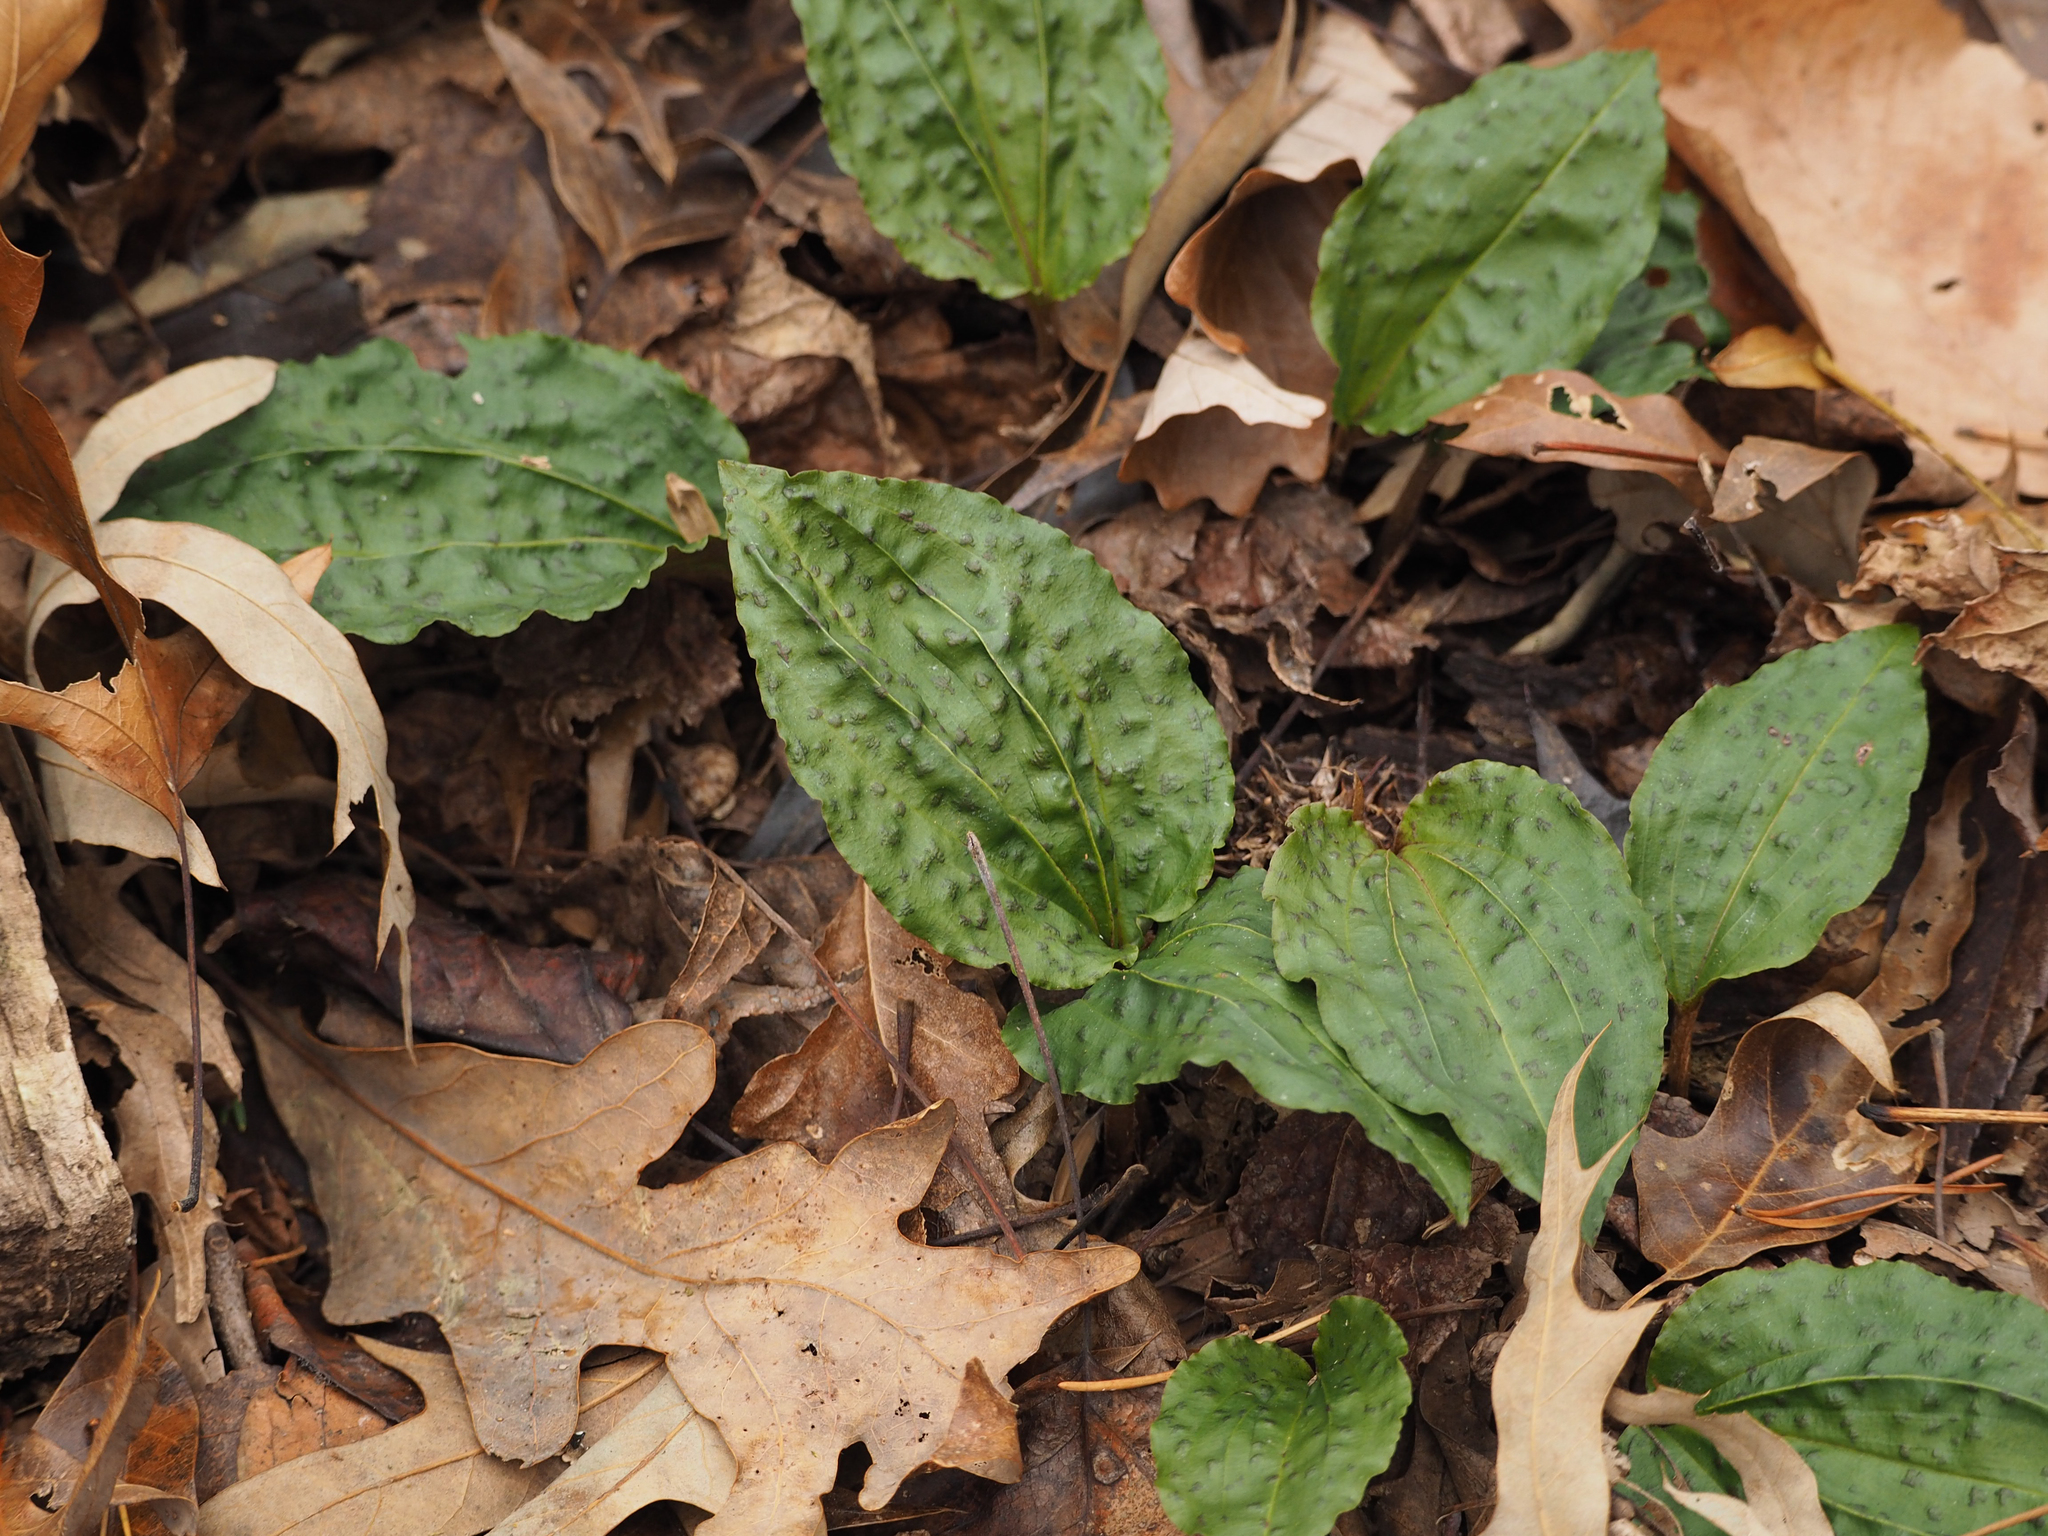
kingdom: Plantae
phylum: Tracheophyta
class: Liliopsida
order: Asparagales
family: Orchidaceae
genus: Tipularia
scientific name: Tipularia discolor
